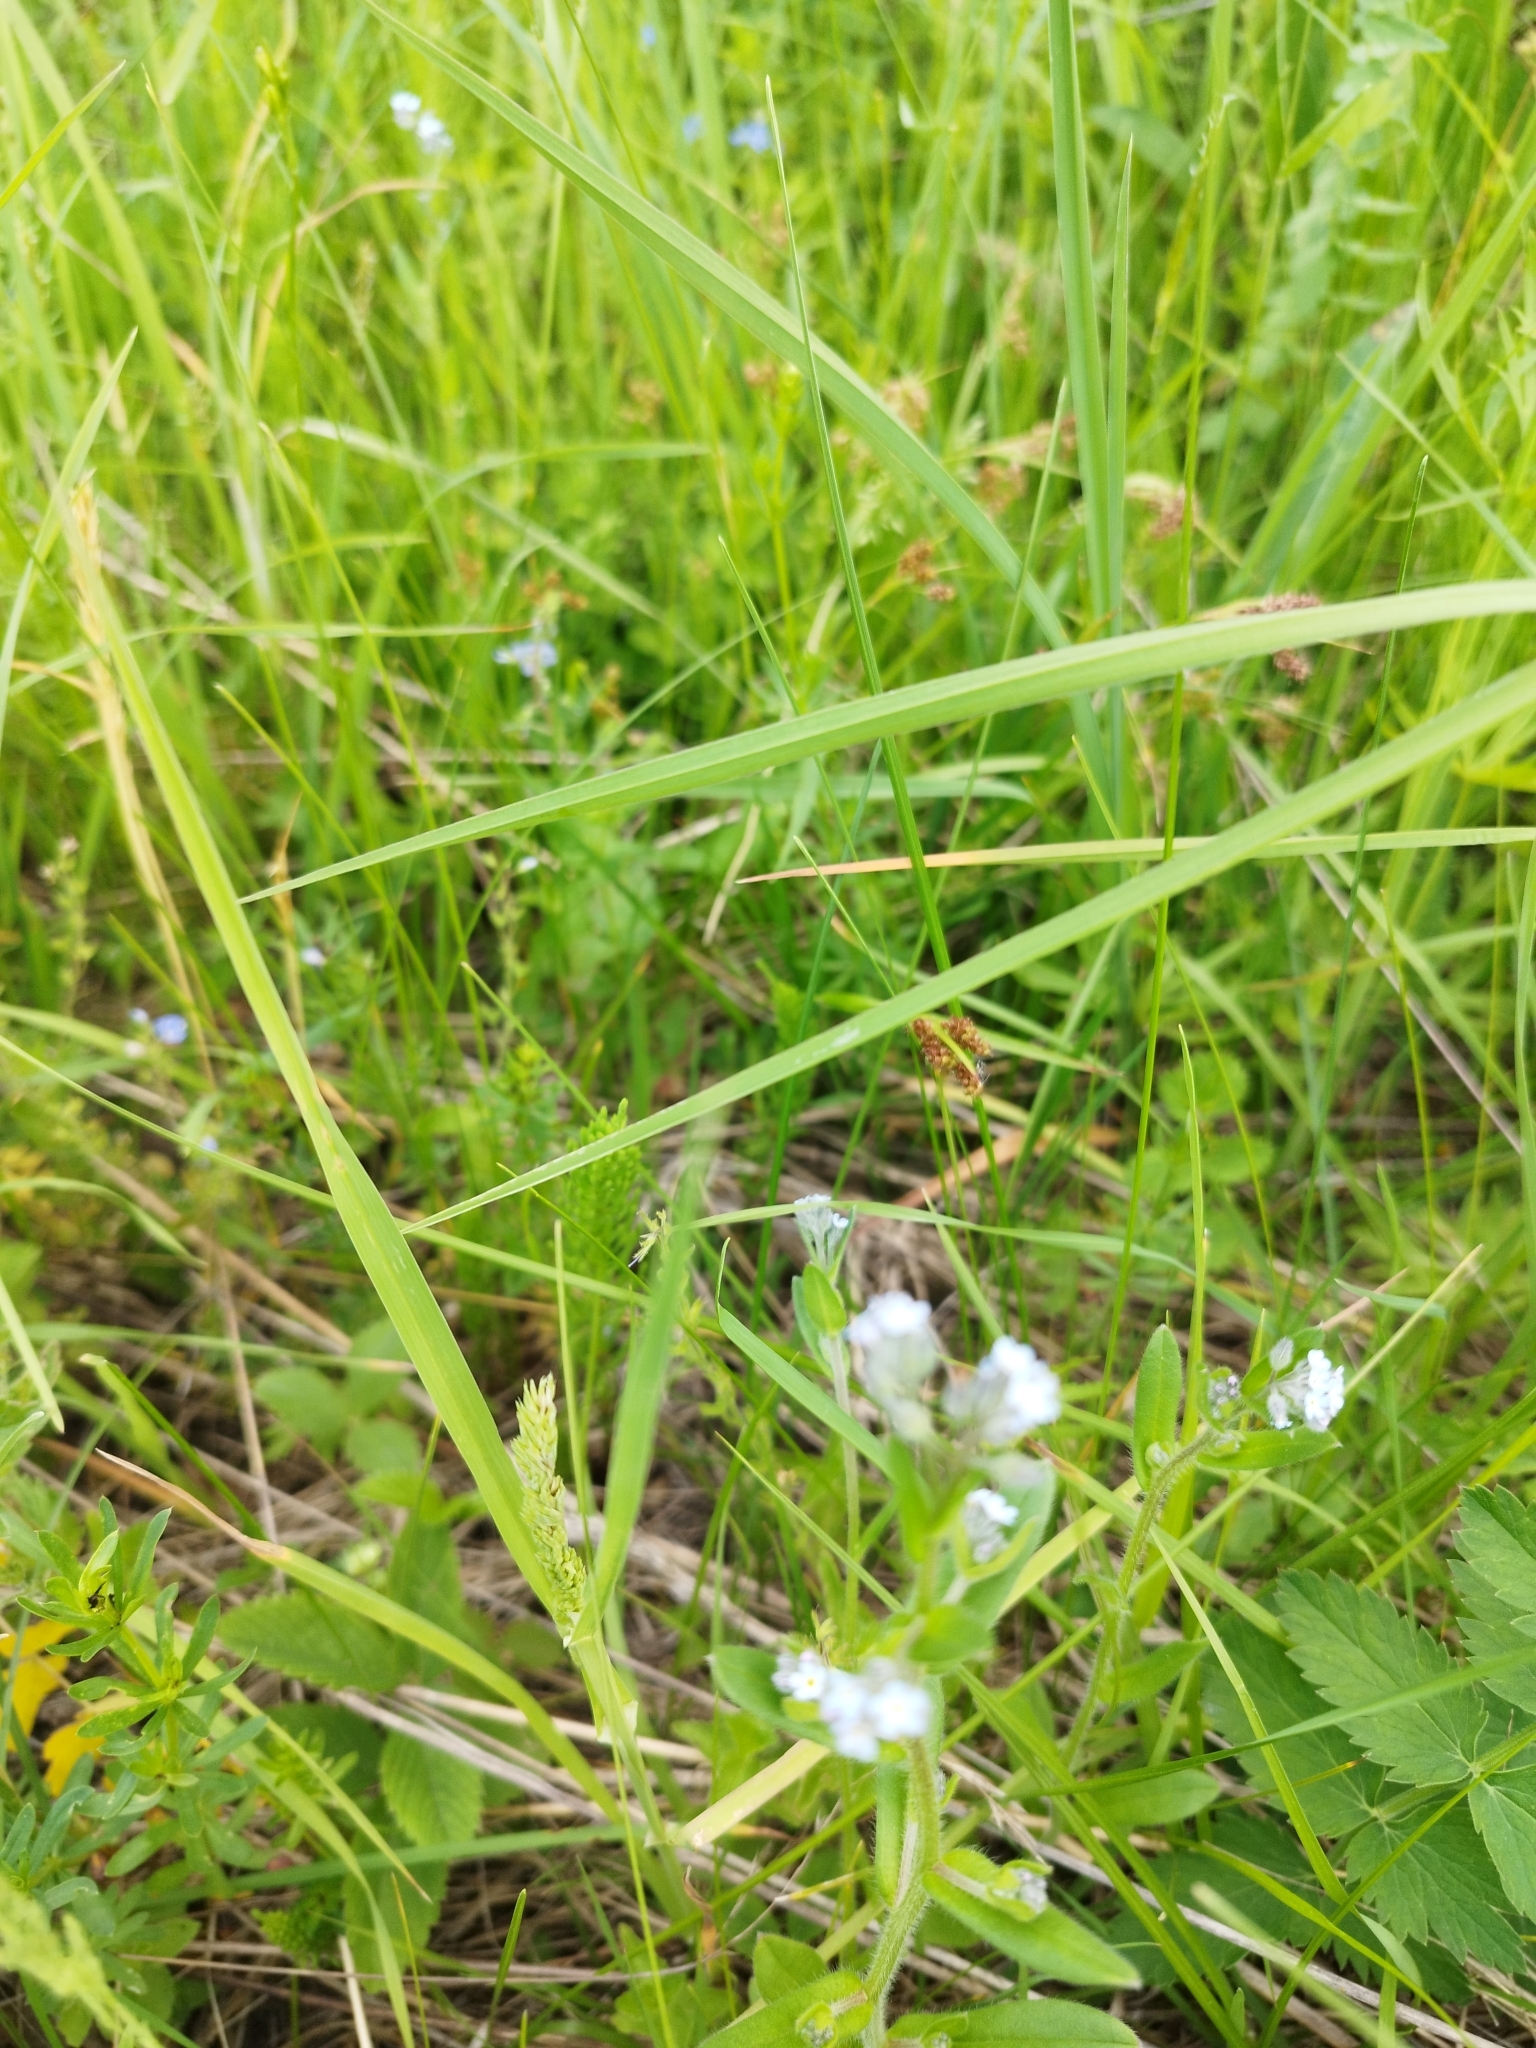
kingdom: Plantae
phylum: Tracheophyta
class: Magnoliopsida
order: Boraginales
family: Boraginaceae
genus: Myosotis
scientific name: Myosotis arvensis
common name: Field forget-me-not
